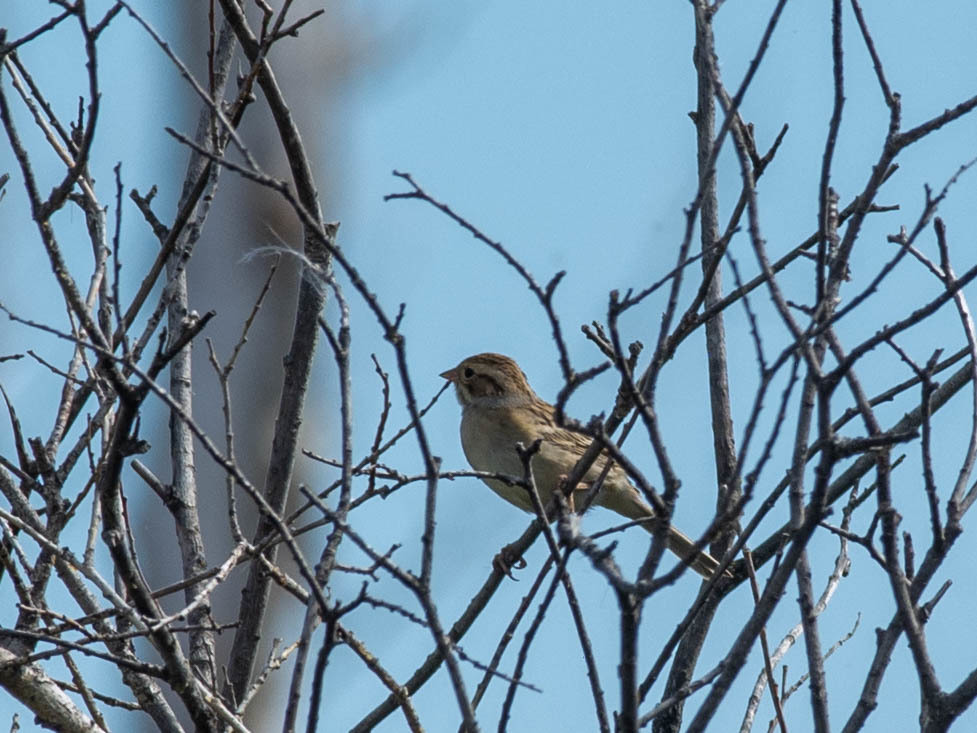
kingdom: Animalia
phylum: Chordata
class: Aves
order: Passeriformes
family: Passerellidae
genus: Spizella
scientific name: Spizella pallida
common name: Clay-colored sparrow
